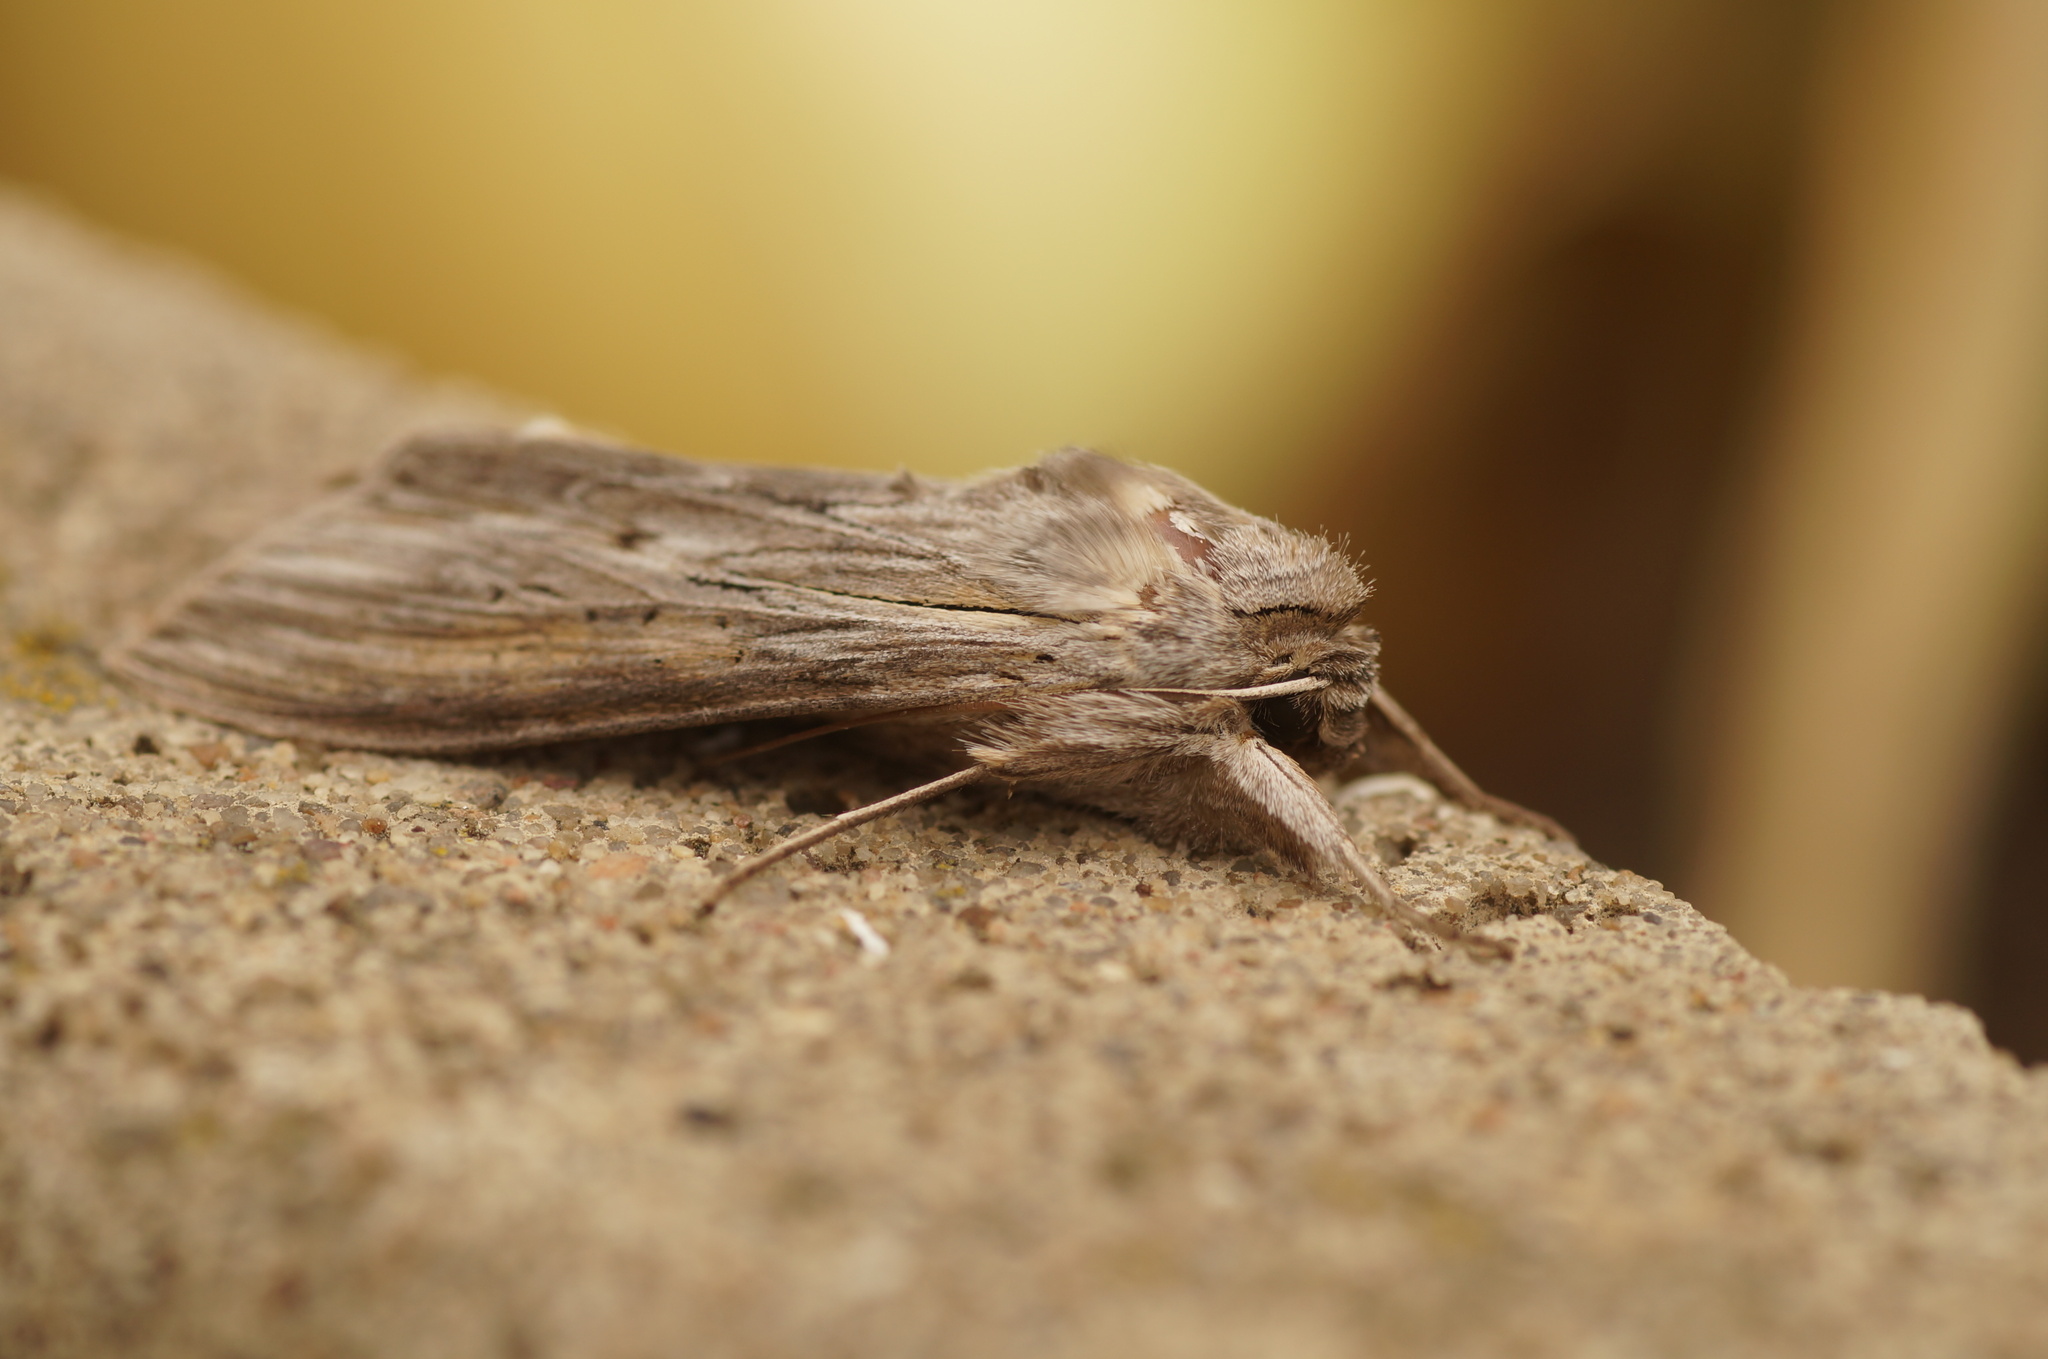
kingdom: Animalia
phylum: Arthropoda
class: Insecta
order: Lepidoptera
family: Noctuidae
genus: Cucullia
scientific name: Cucullia umbratica
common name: Shark
